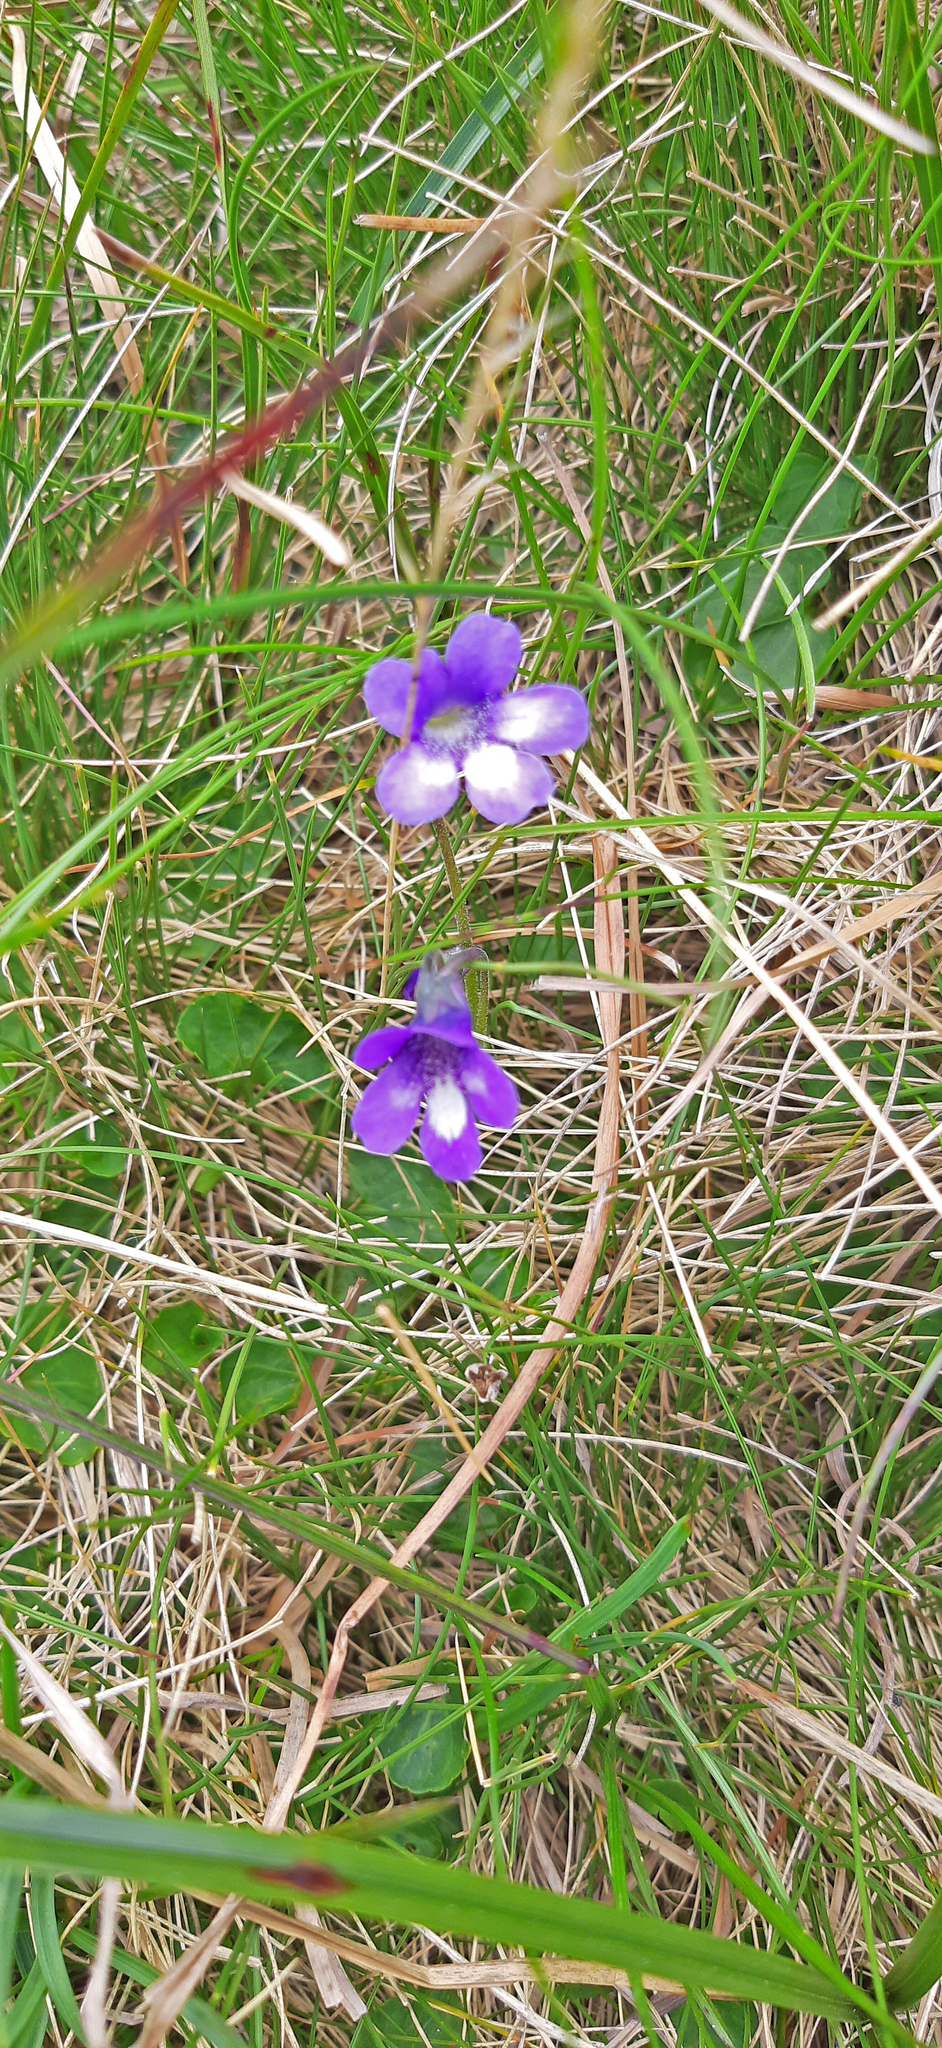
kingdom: Plantae
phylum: Tracheophyta
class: Magnoliopsida
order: Lamiales
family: Lentibulariaceae
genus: Pinguicula
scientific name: Pinguicula leptoceras
